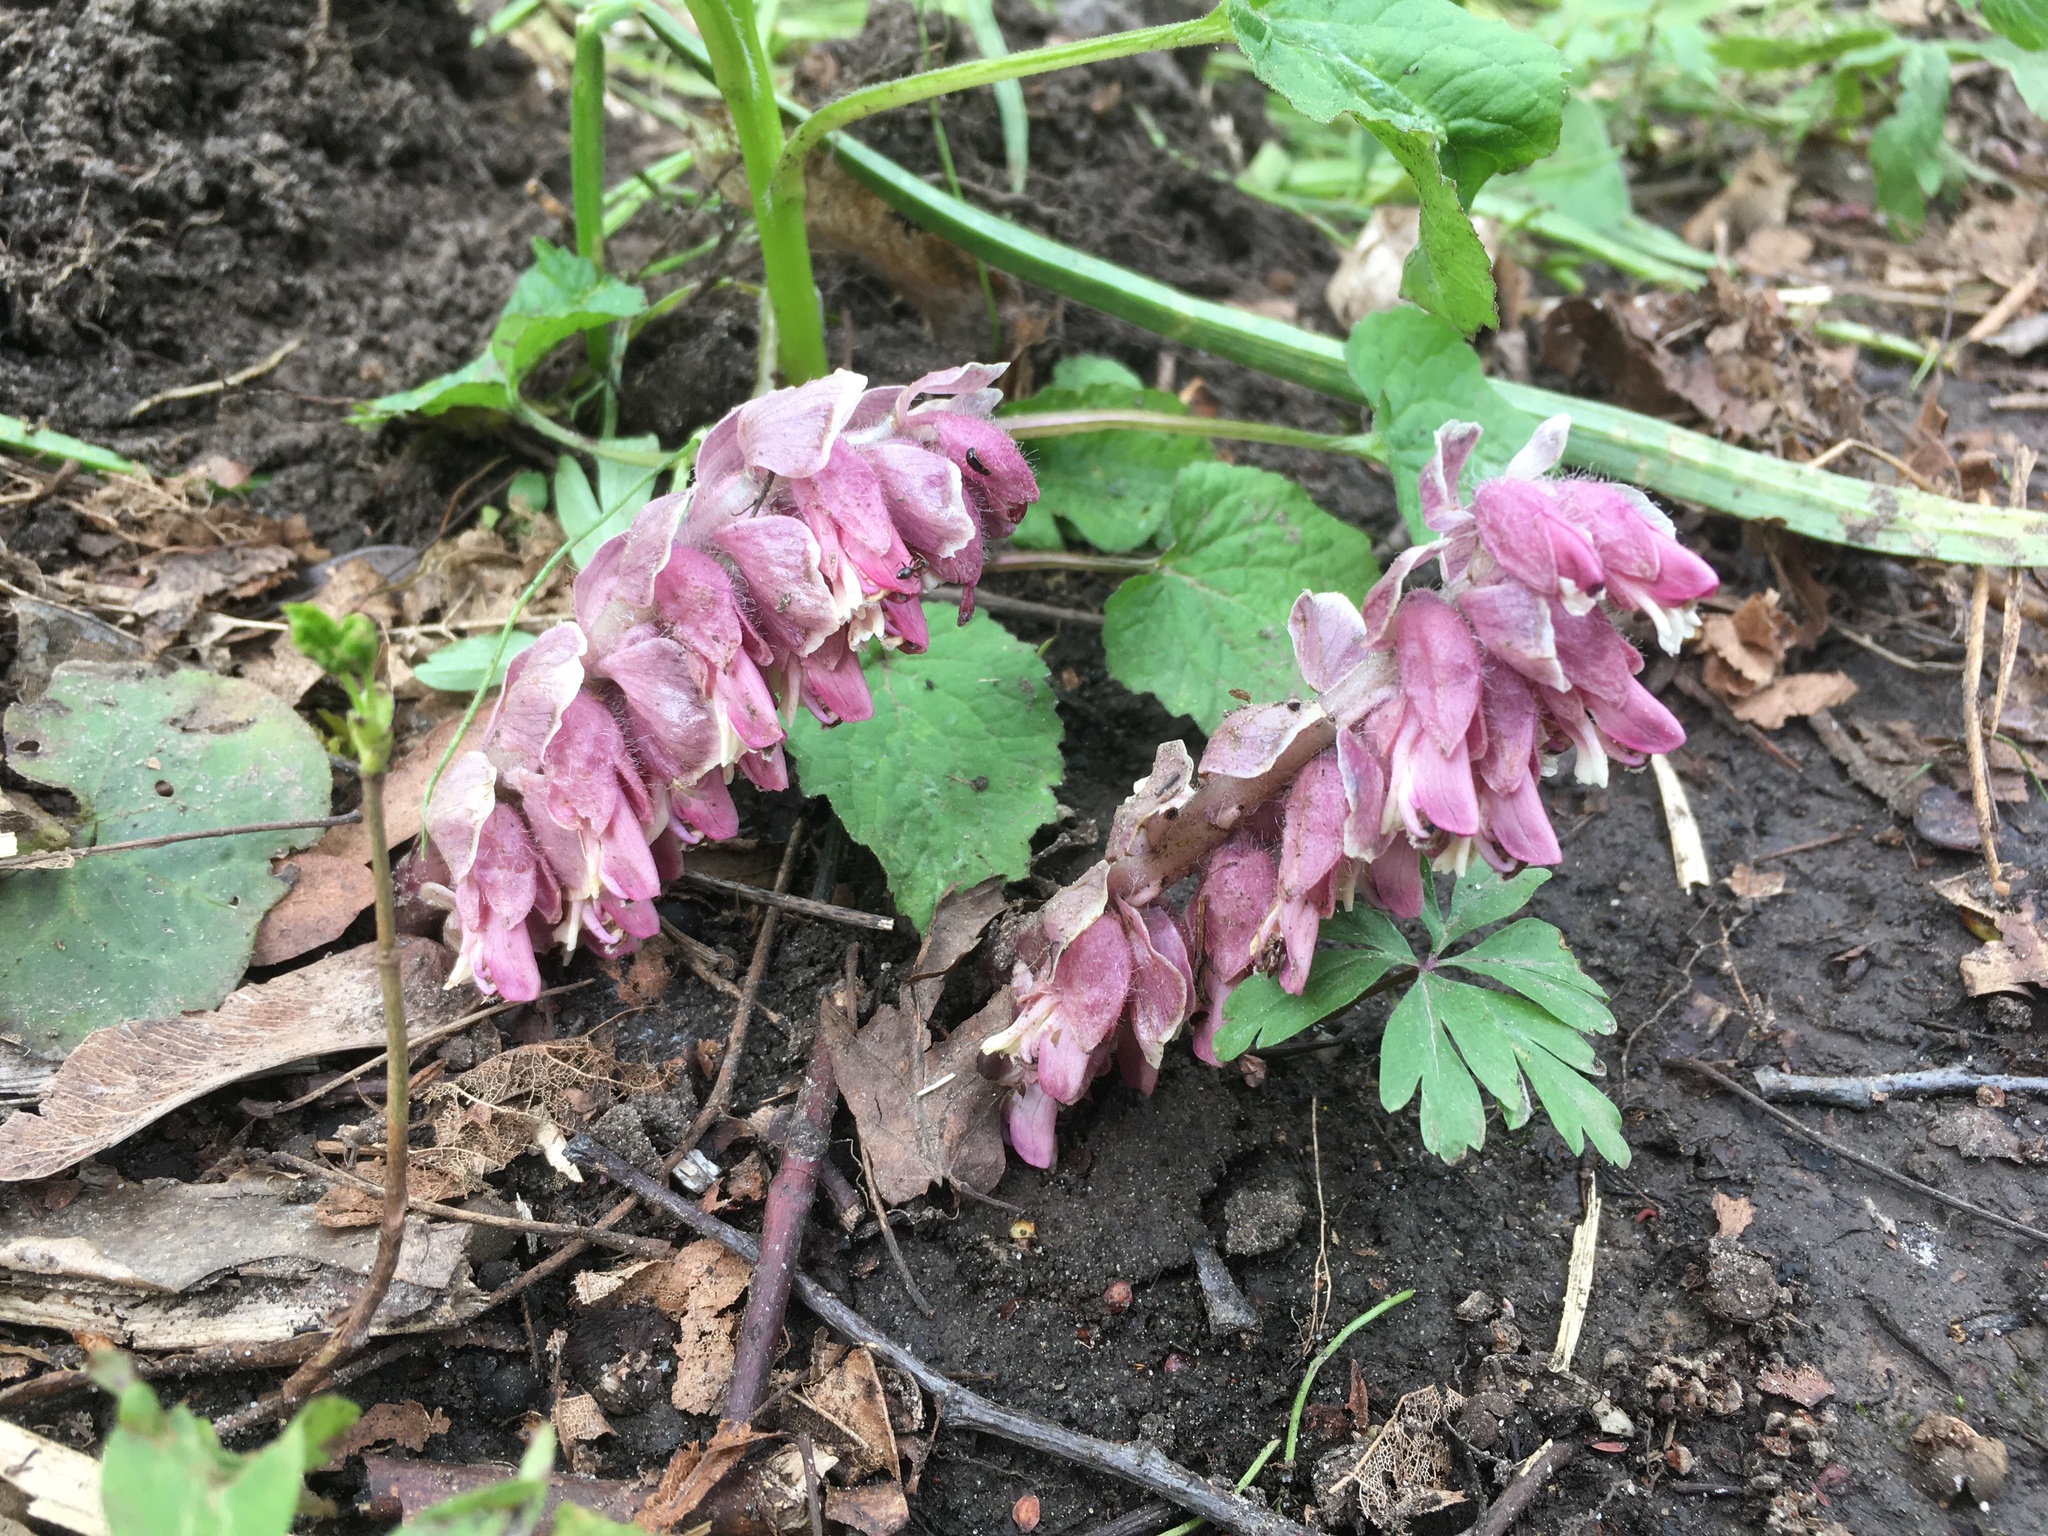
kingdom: Plantae
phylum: Tracheophyta
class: Magnoliopsida
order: Lamiales
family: Orobanchaceae
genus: Lathraea
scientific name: Lathraea squamaria
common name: Toothwort
